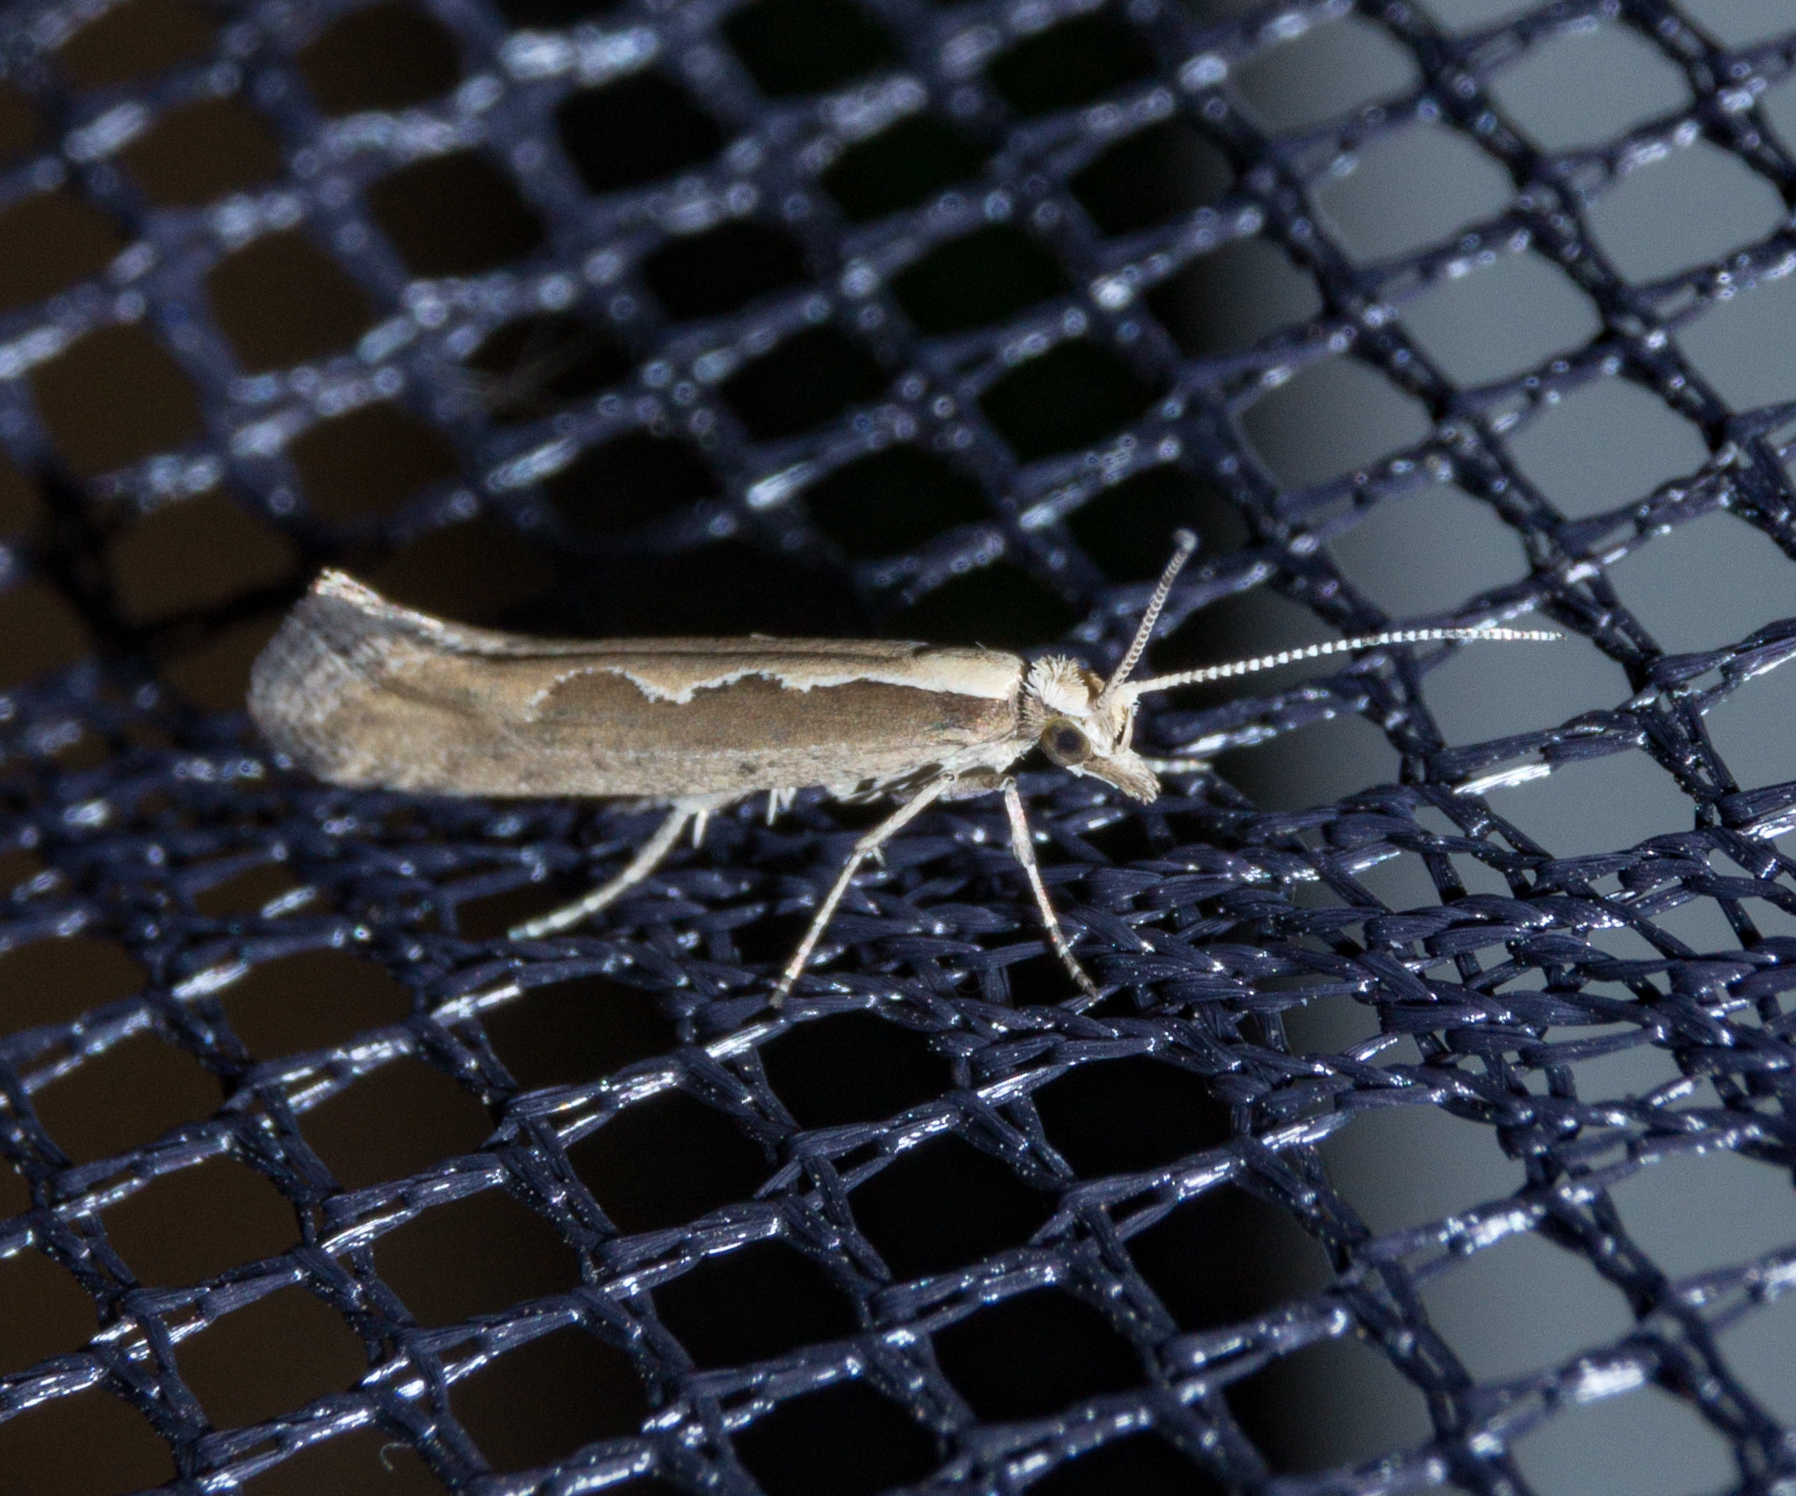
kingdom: Animalia
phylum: Arthropoda
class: Insecta
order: Lepidoptera
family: Plutellidae
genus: Plutella
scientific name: Plutella xylostella
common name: Diamond-back moth
